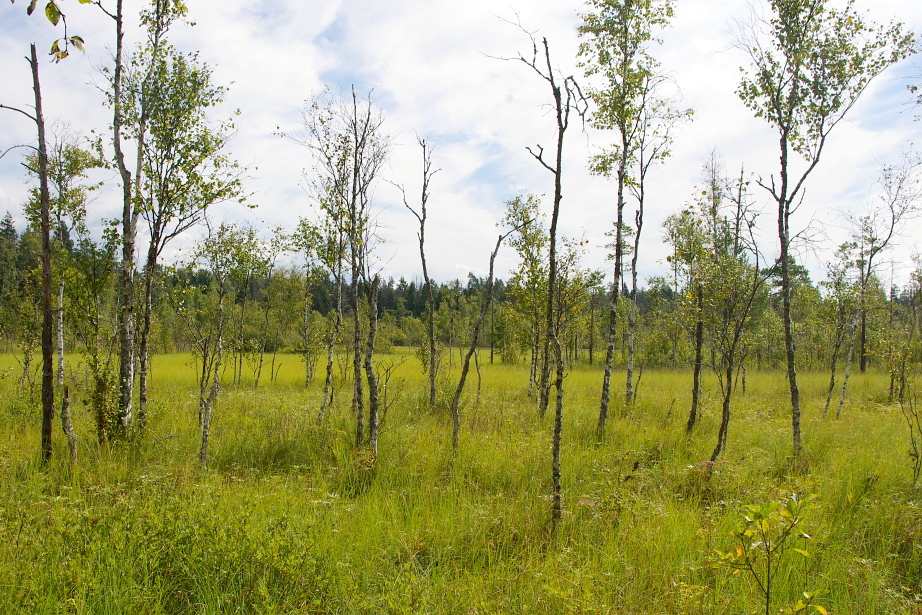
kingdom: Plantae
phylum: Tracheophyta
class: Magnoliopsida
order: Fagales
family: Betulaceae
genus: Betula
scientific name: Betula pubescens
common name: Downy birch
